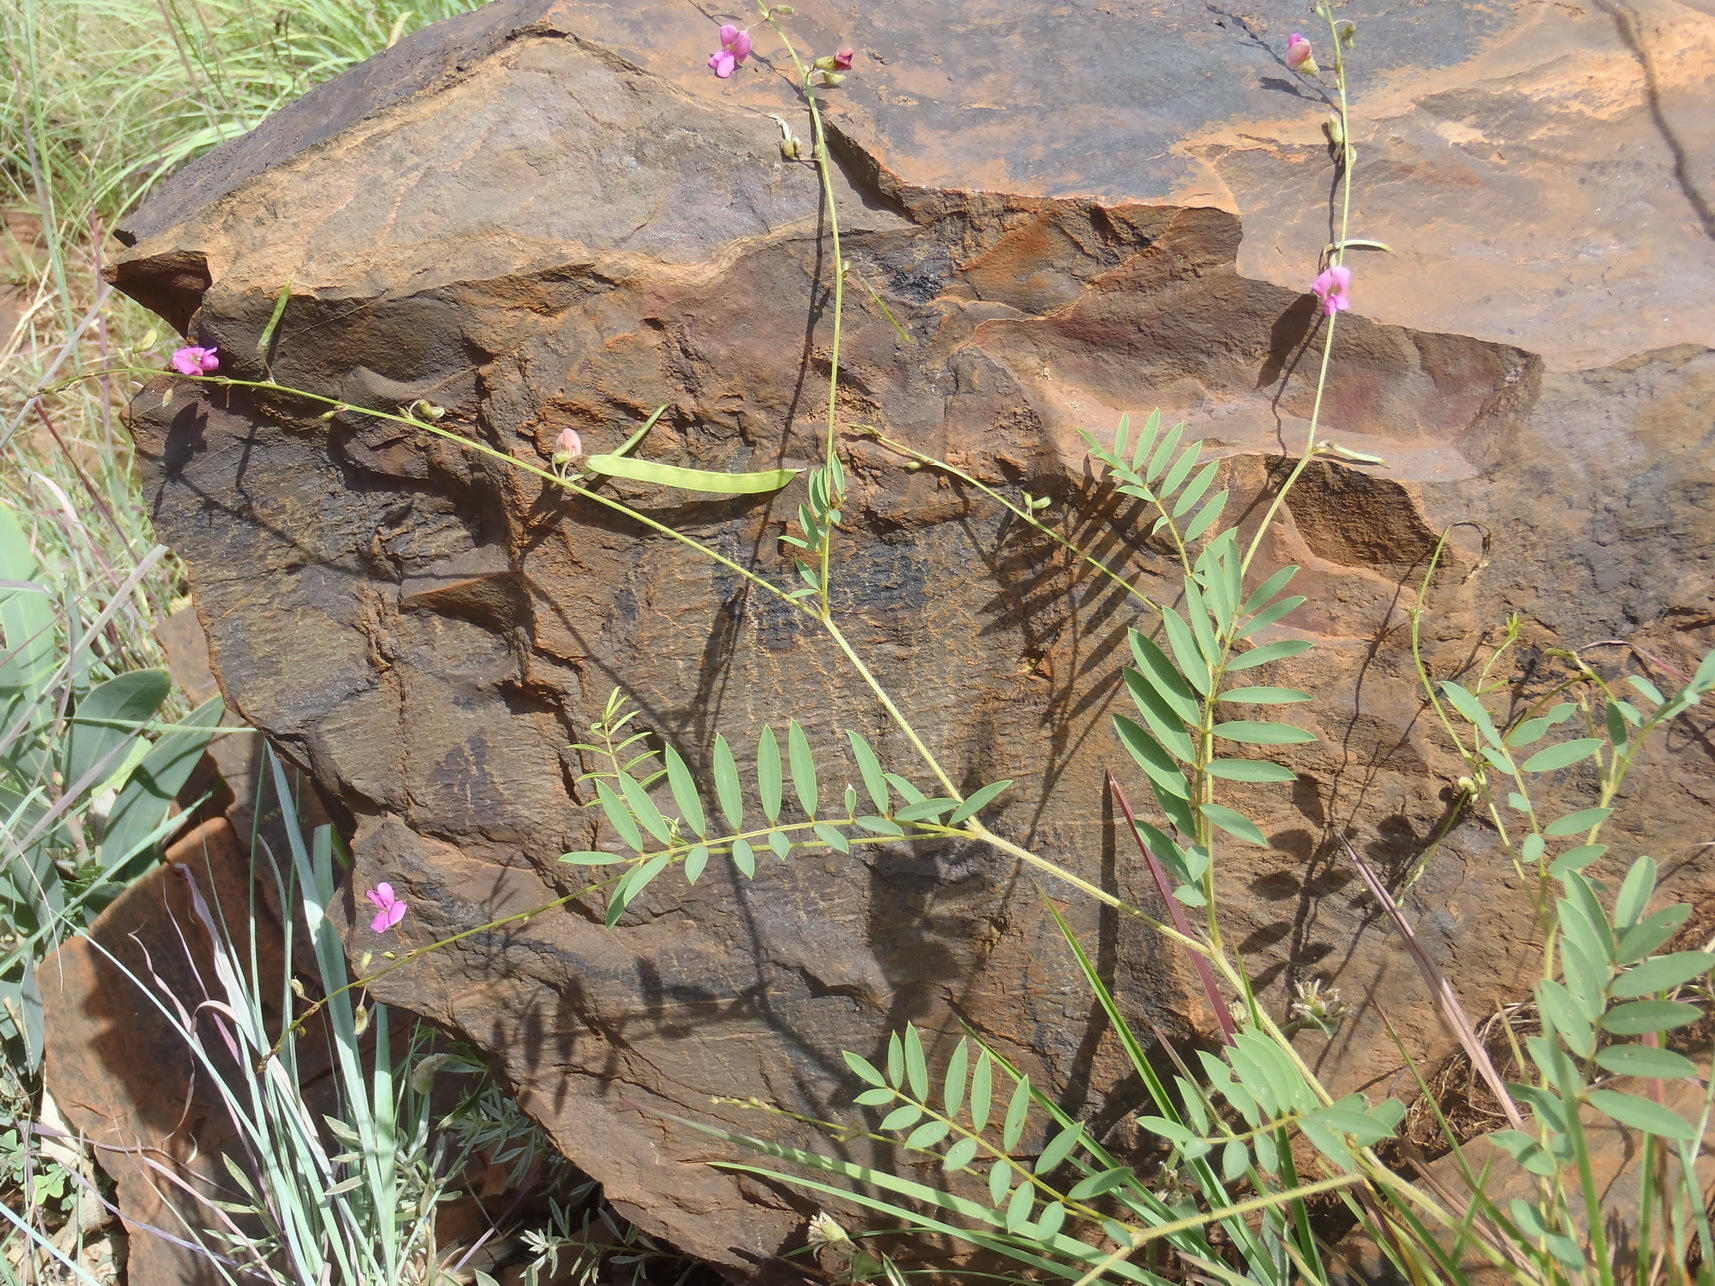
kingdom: Plantae
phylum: Tracheophyta
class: Magnoliopsida
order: Fabales
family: Fabaceae
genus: Tephrosia
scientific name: Tephrosia capensis
